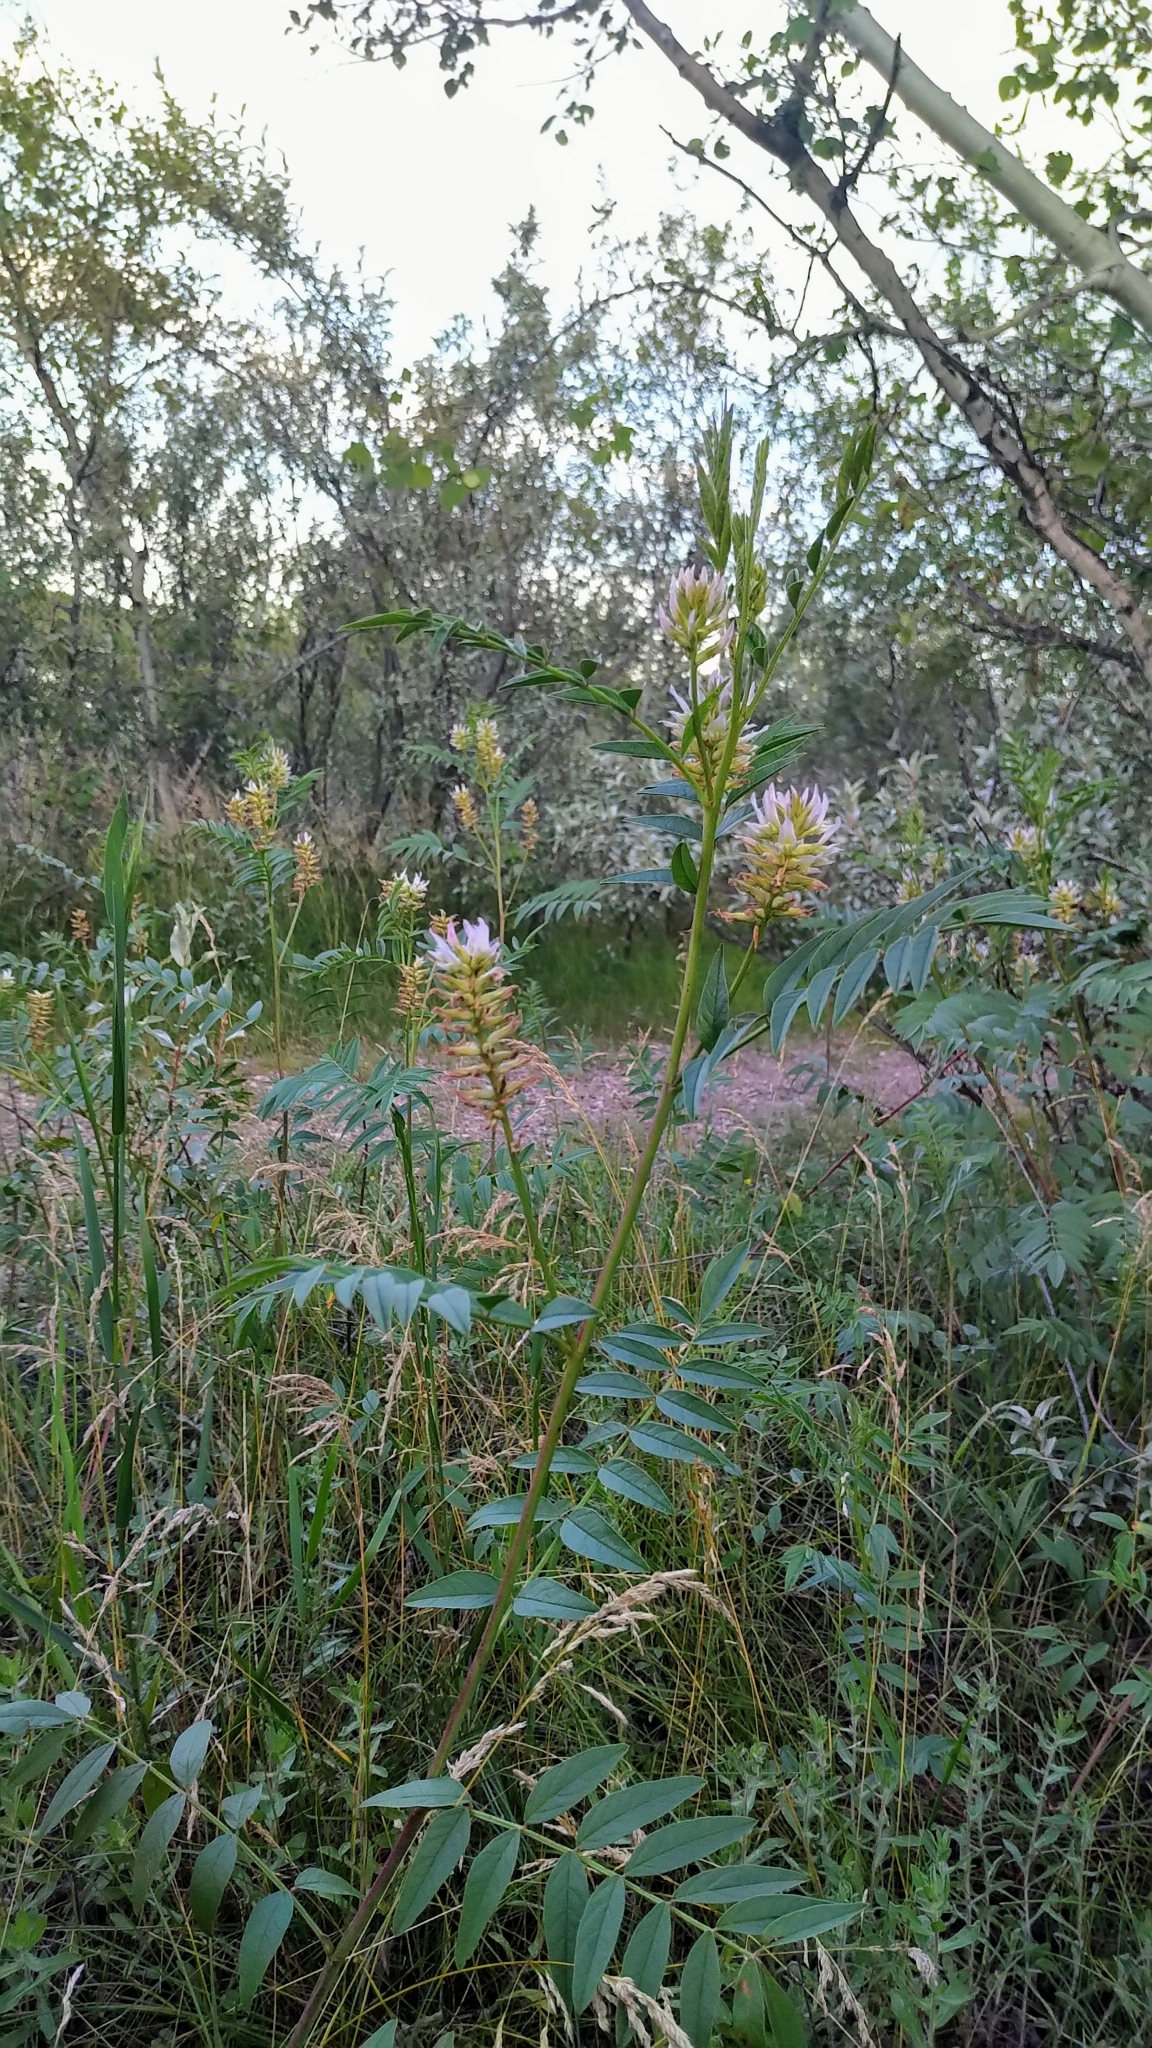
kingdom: Plantae
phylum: Tracheophyta
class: Magnoliopsida
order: Fabales
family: Fabaceae
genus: Glycyrrhiza
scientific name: Glycyrrhiza lepidota
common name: American liquorice
